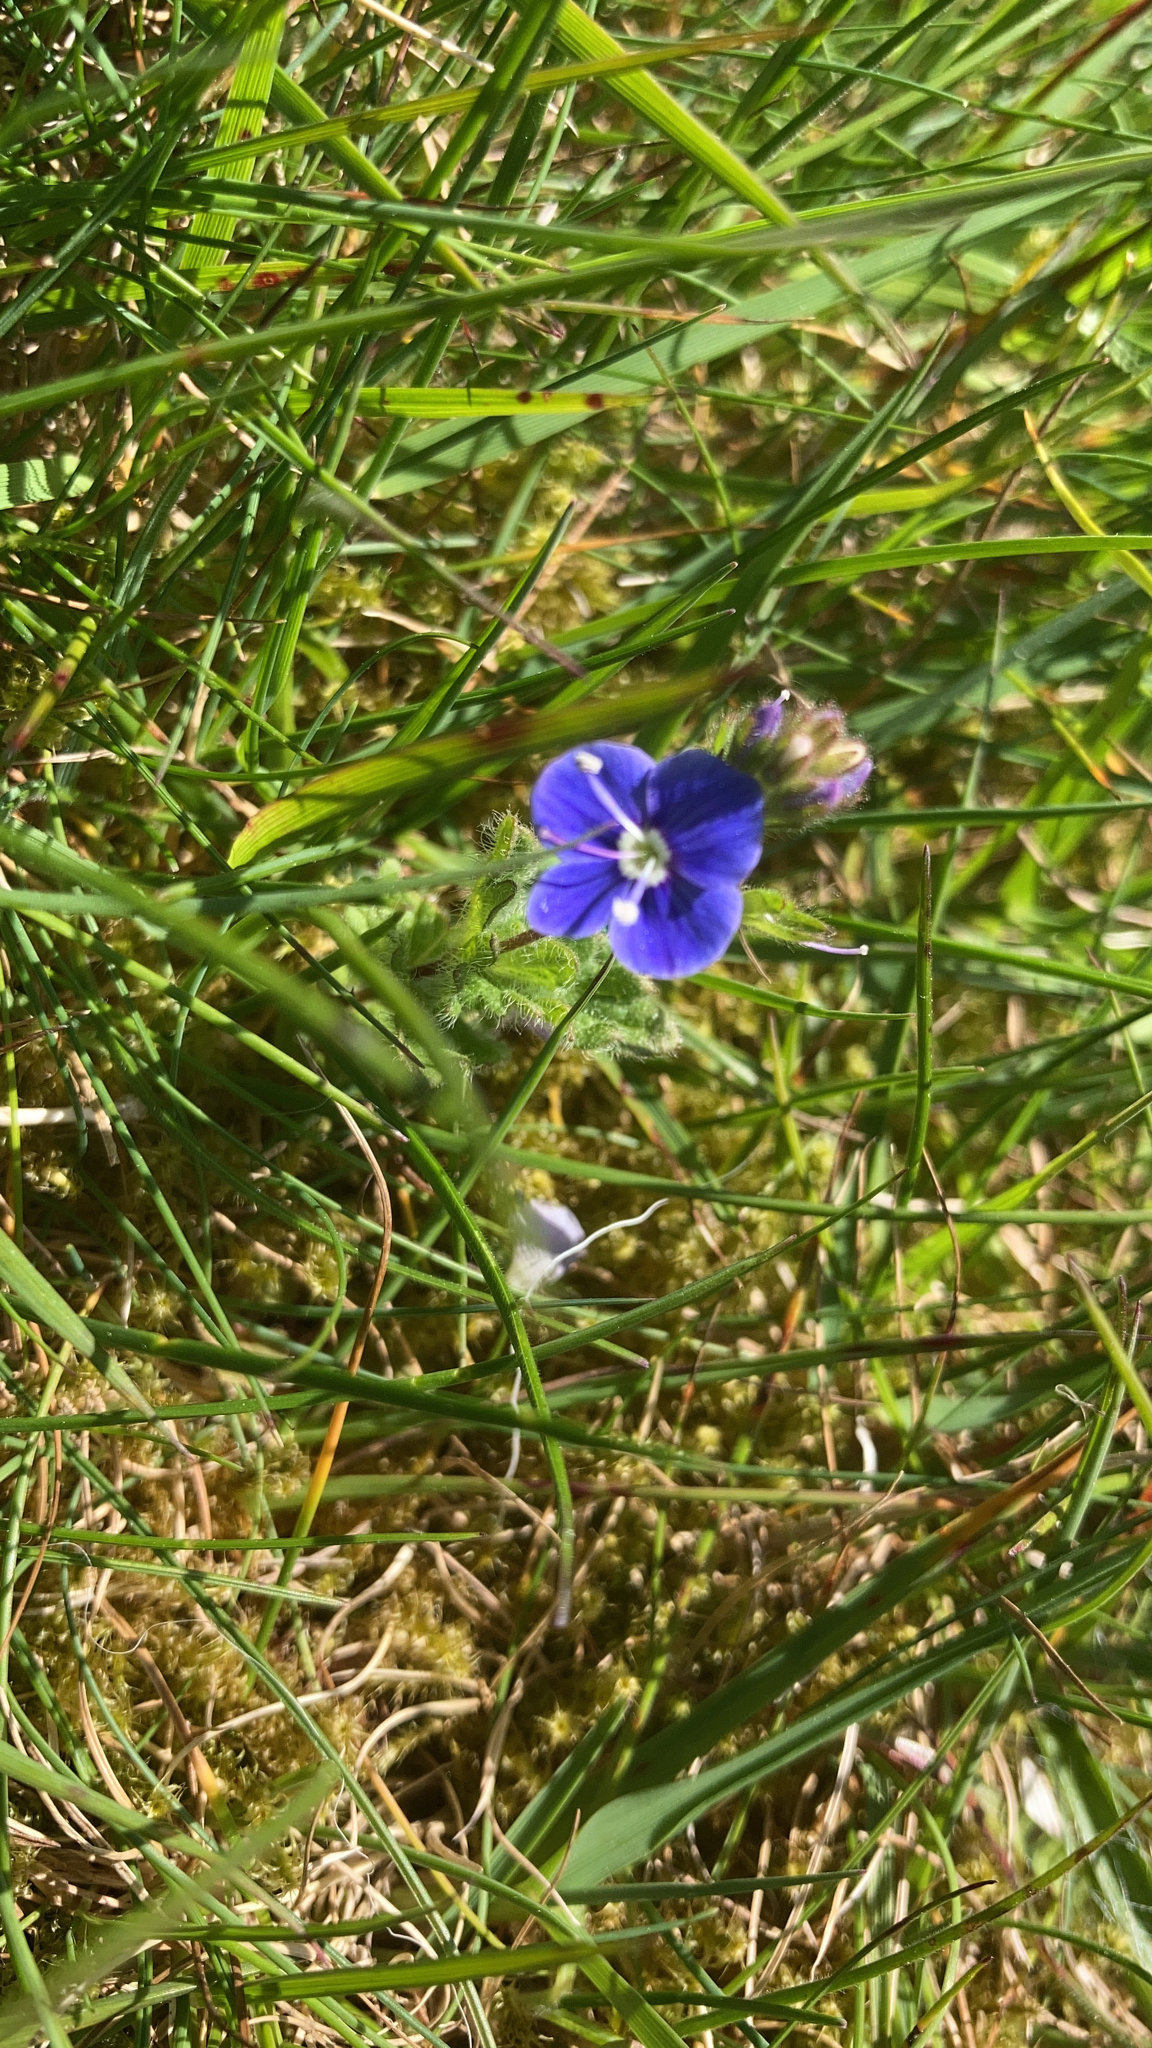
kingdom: Plantae
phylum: Tracheophyta
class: Magnoliopsida
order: Lamiales
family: Plantaginaceae
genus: Veronica
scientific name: Veronica chamaedrys
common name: Germander speedwell
